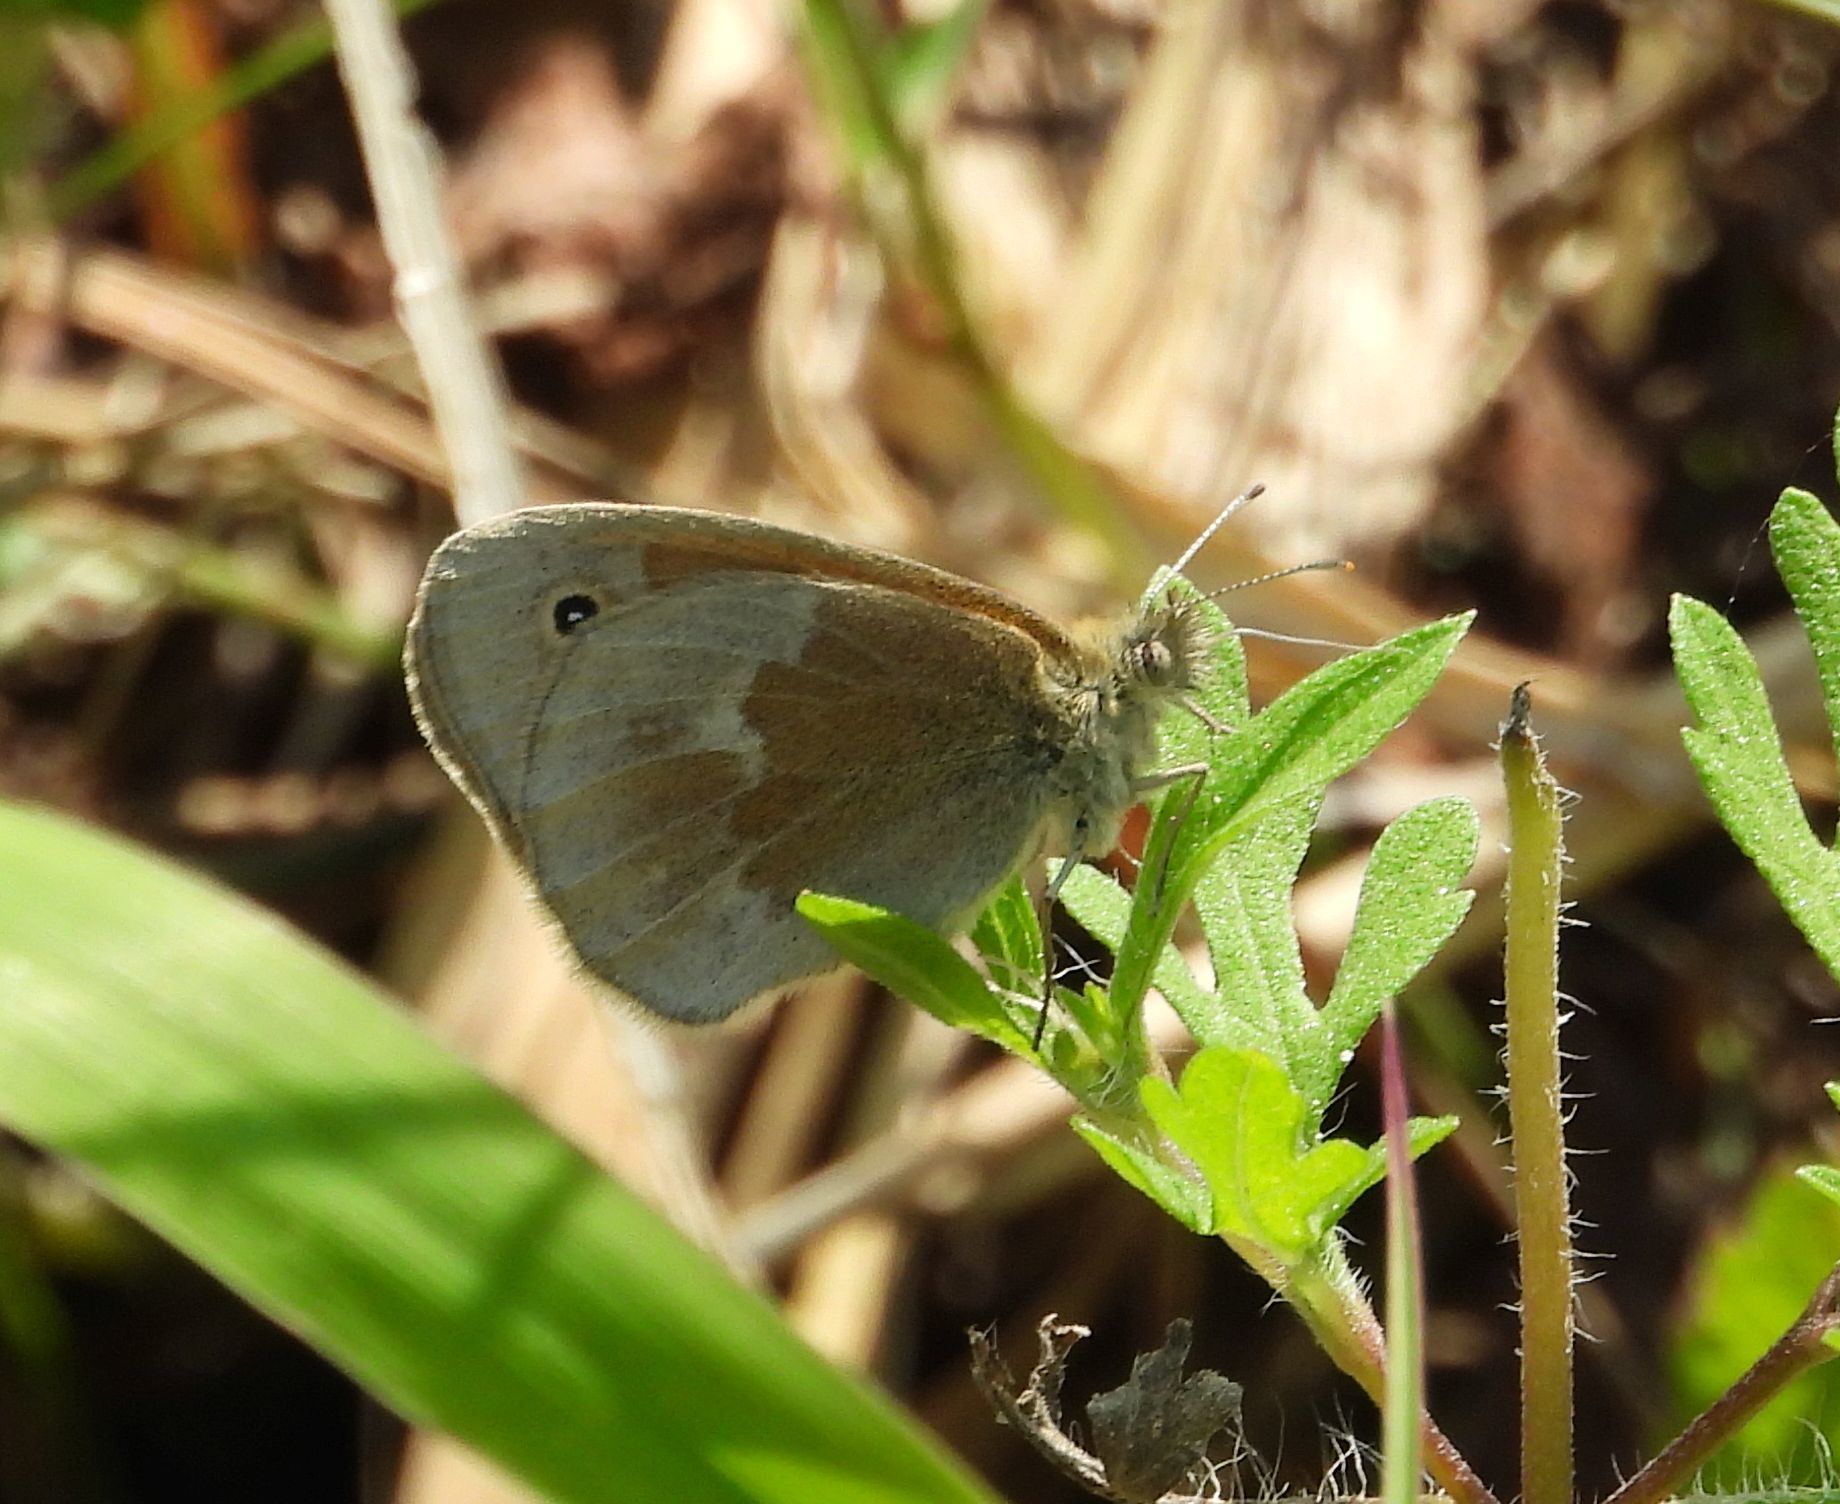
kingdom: Animalia
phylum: Arthropoda
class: Insecta
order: Lepidoptera
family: Nymphalidae
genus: Coenonympha
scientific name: Coenonympha california
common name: Common ringlet
